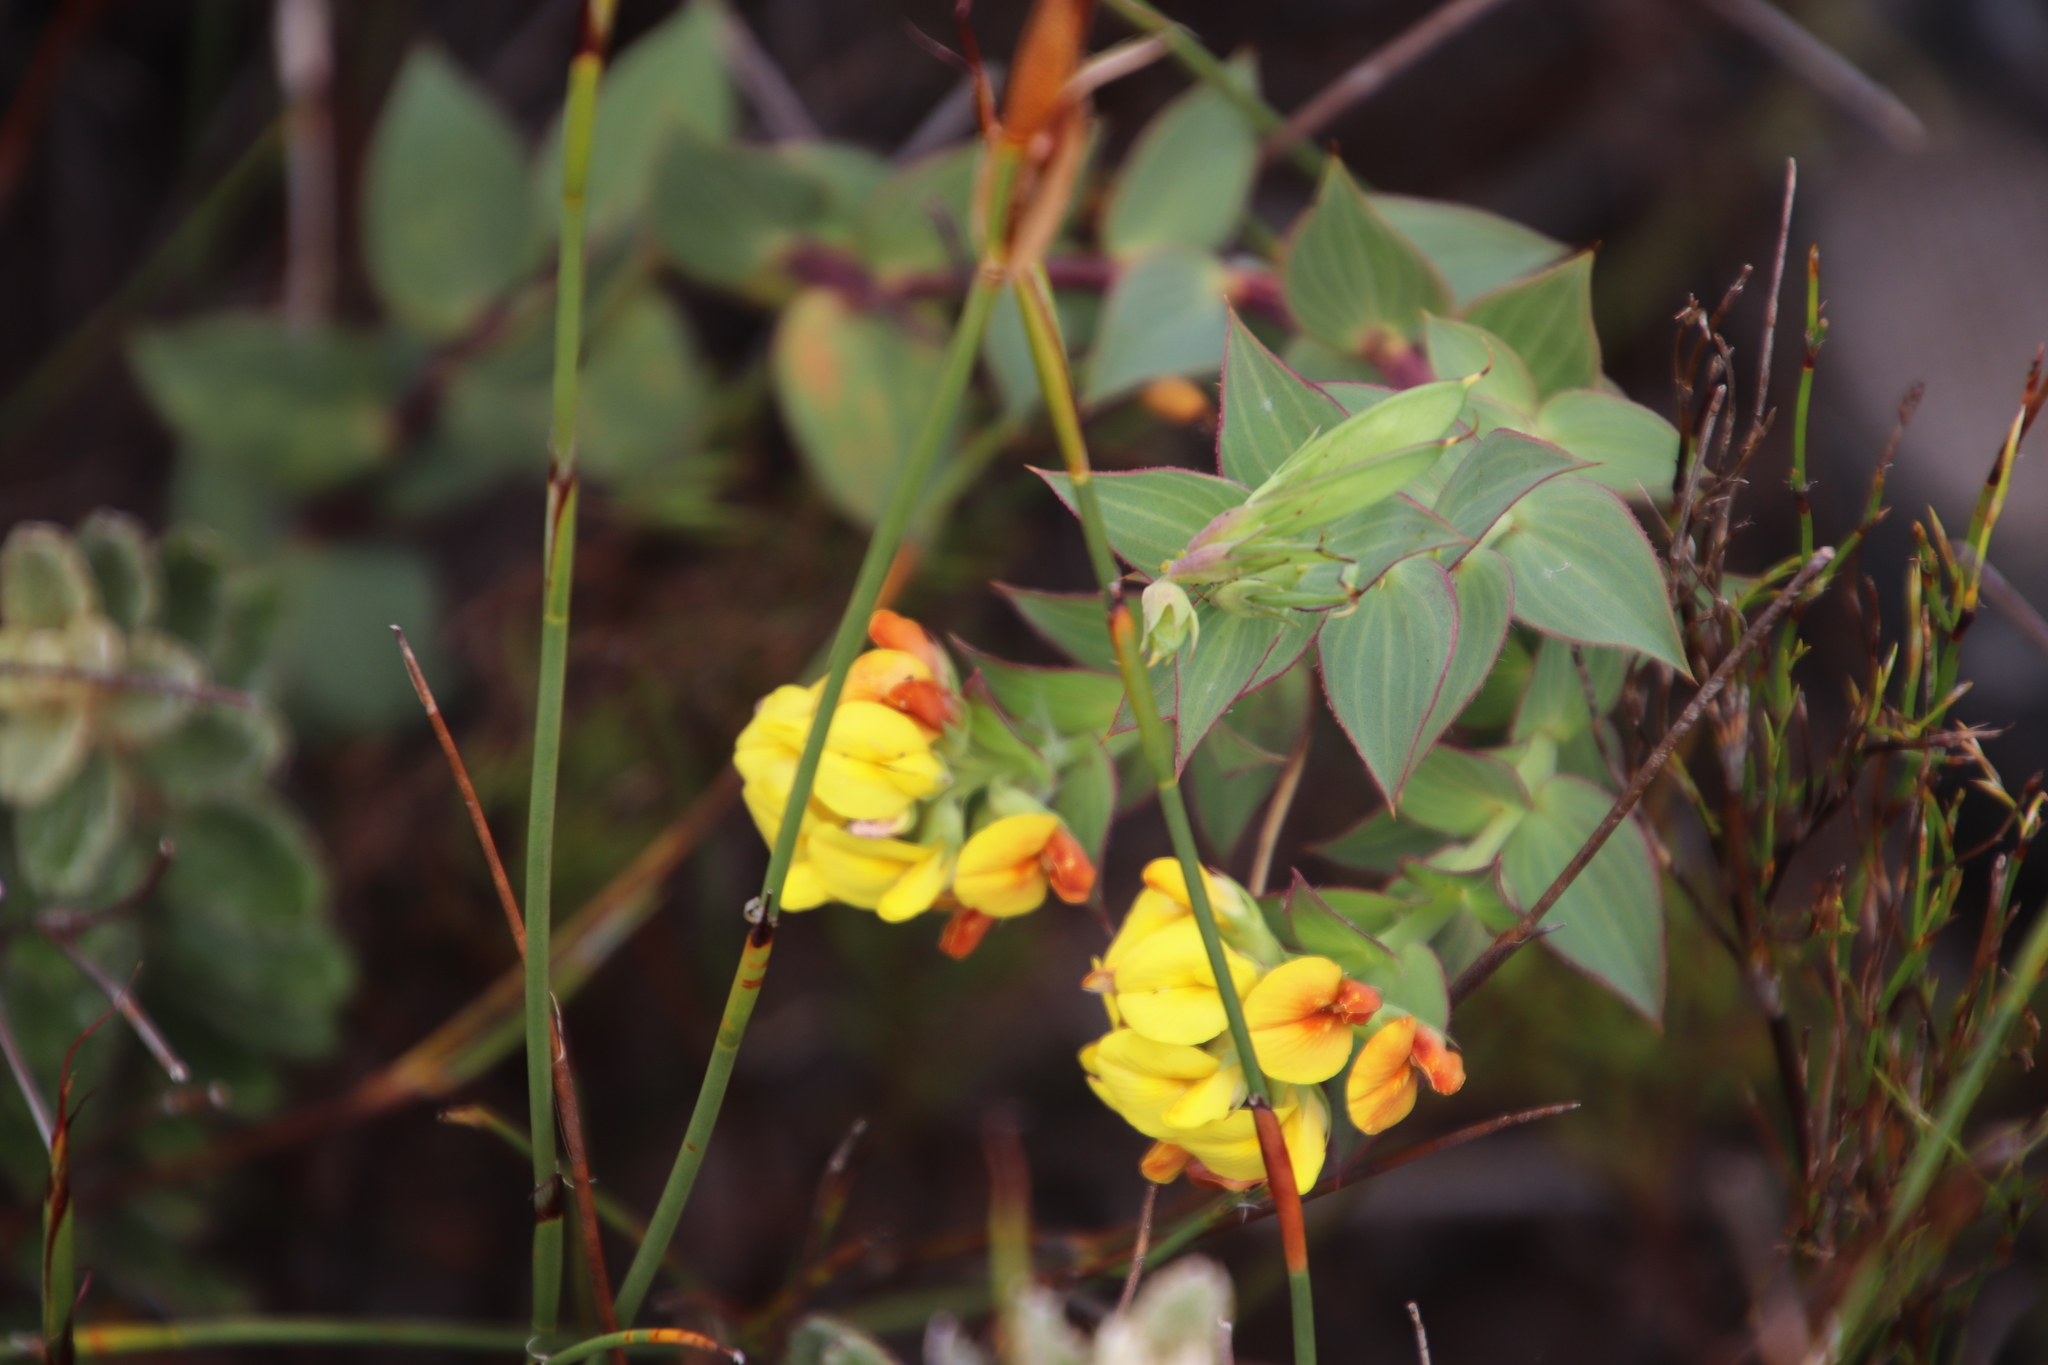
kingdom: Plantae
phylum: Tracheophyta
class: Magnoliopsida
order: Fabales
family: Fabaceae
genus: Aspalathus
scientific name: Aspalathus crenata
